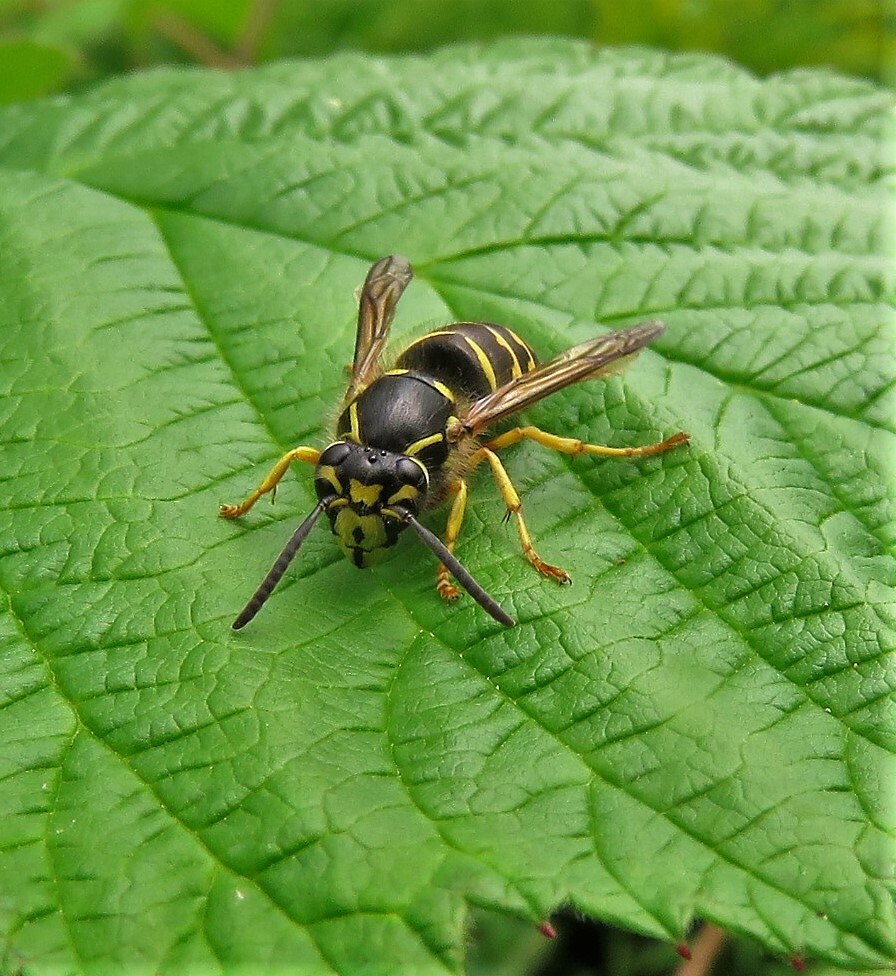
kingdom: Animalia
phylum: Arthropoda
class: Insecta
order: Hymenoptera
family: Vespidae
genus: Dolichovespula
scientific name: Dolichovespula arenaria
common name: Aerial yellowjacket
